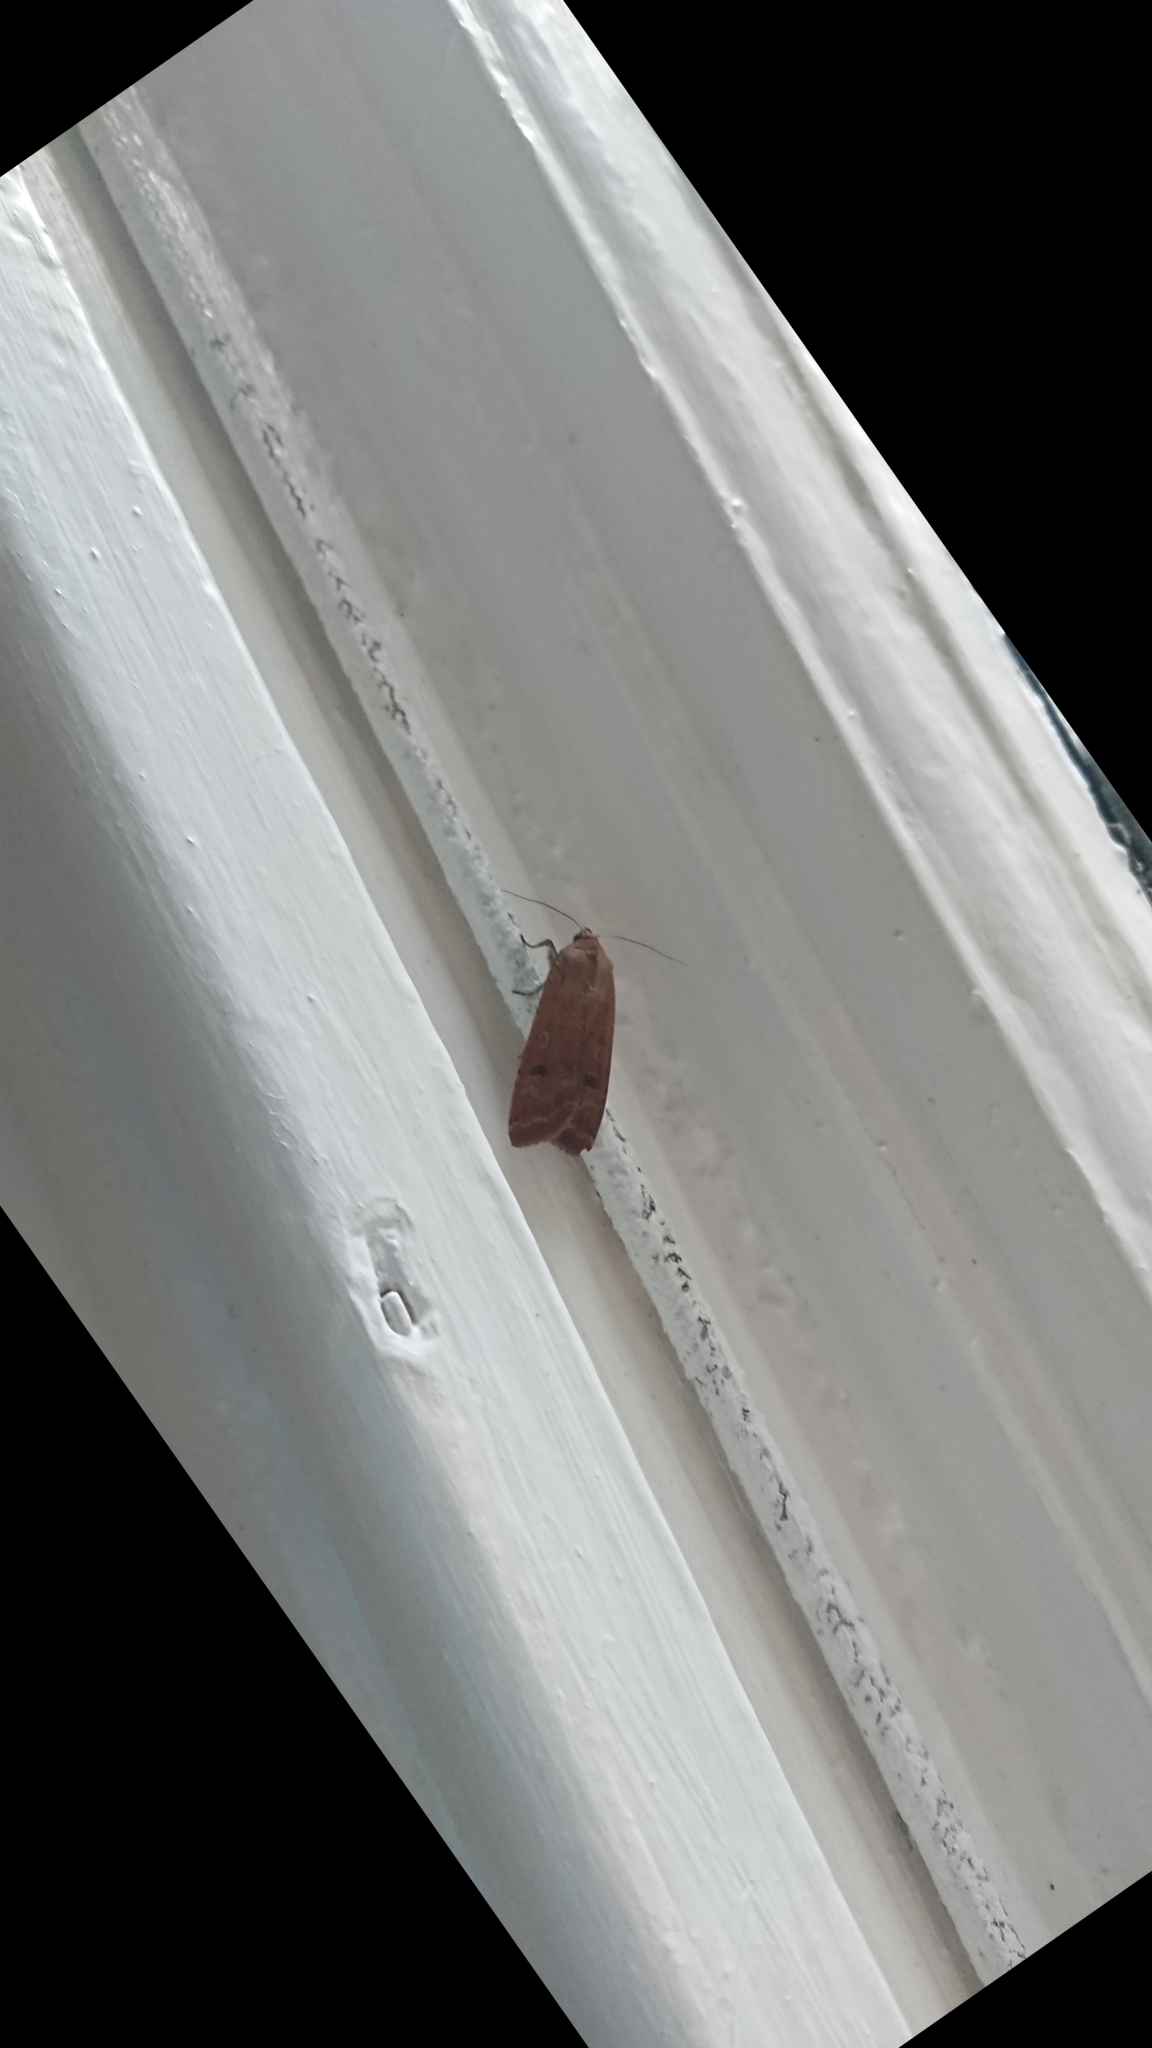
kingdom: Animalia
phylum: Arthropoda
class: Insecta
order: Lepidoptera
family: Noctuidae
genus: Noctua
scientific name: Noctua pronuba
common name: Large yellow underwing
